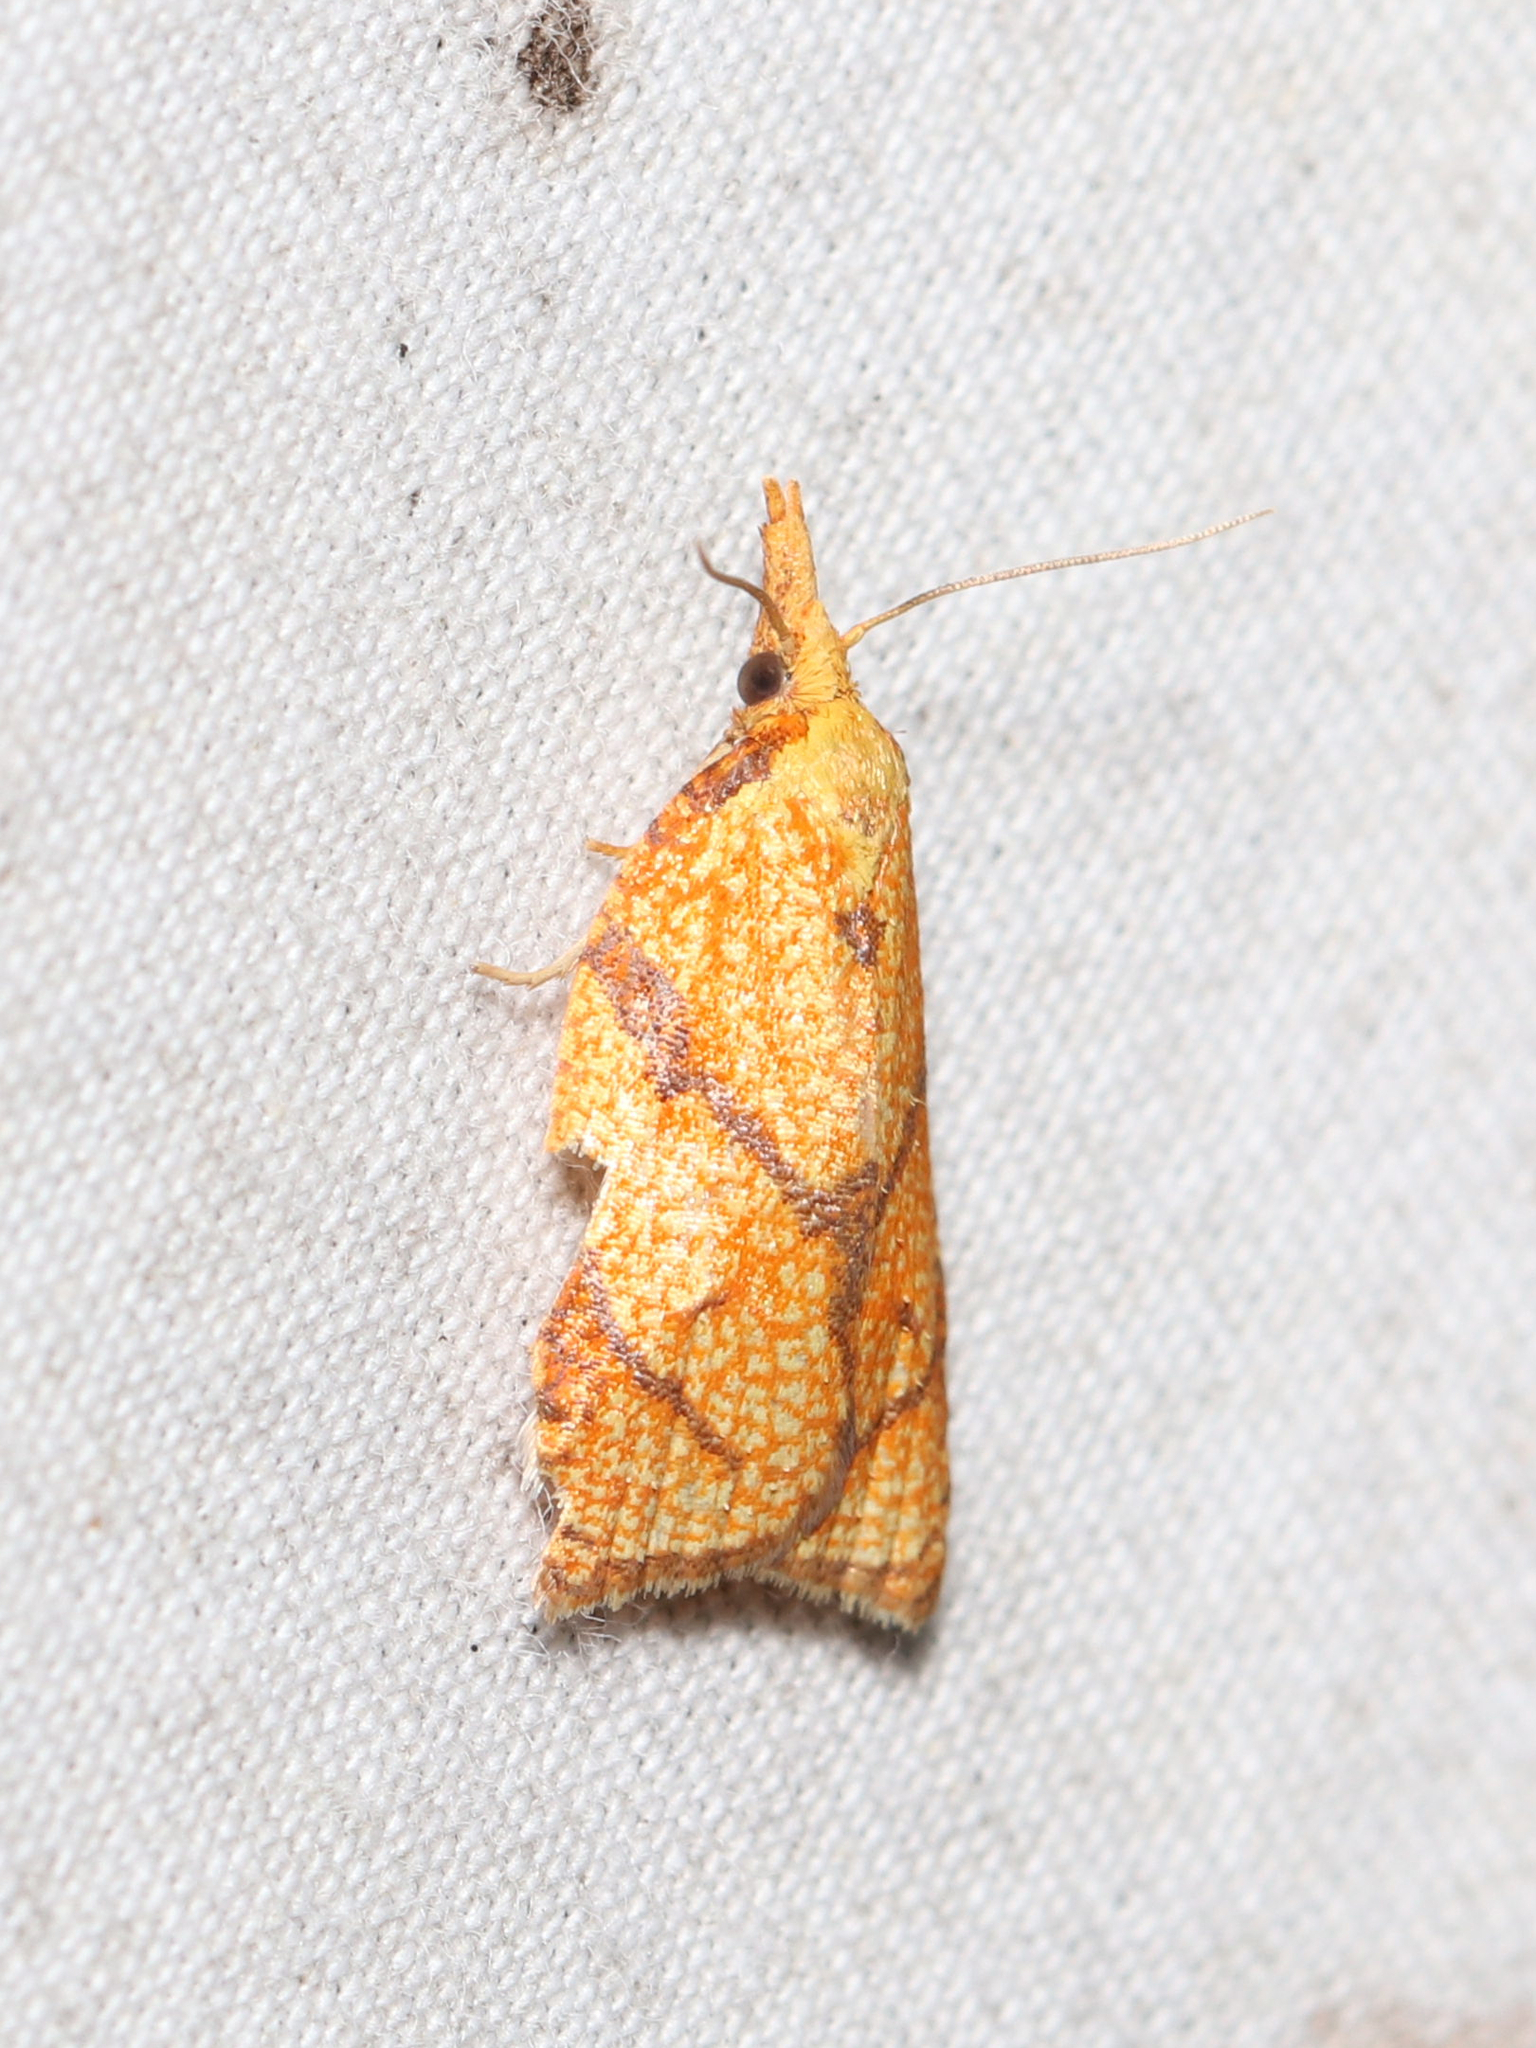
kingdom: Animalia
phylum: Arthropoda
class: Insecta
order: Lepidoptera
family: Tortricidae
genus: Cenopis
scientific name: Cenopis reticulatana
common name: Reticulated fruitworm moth
